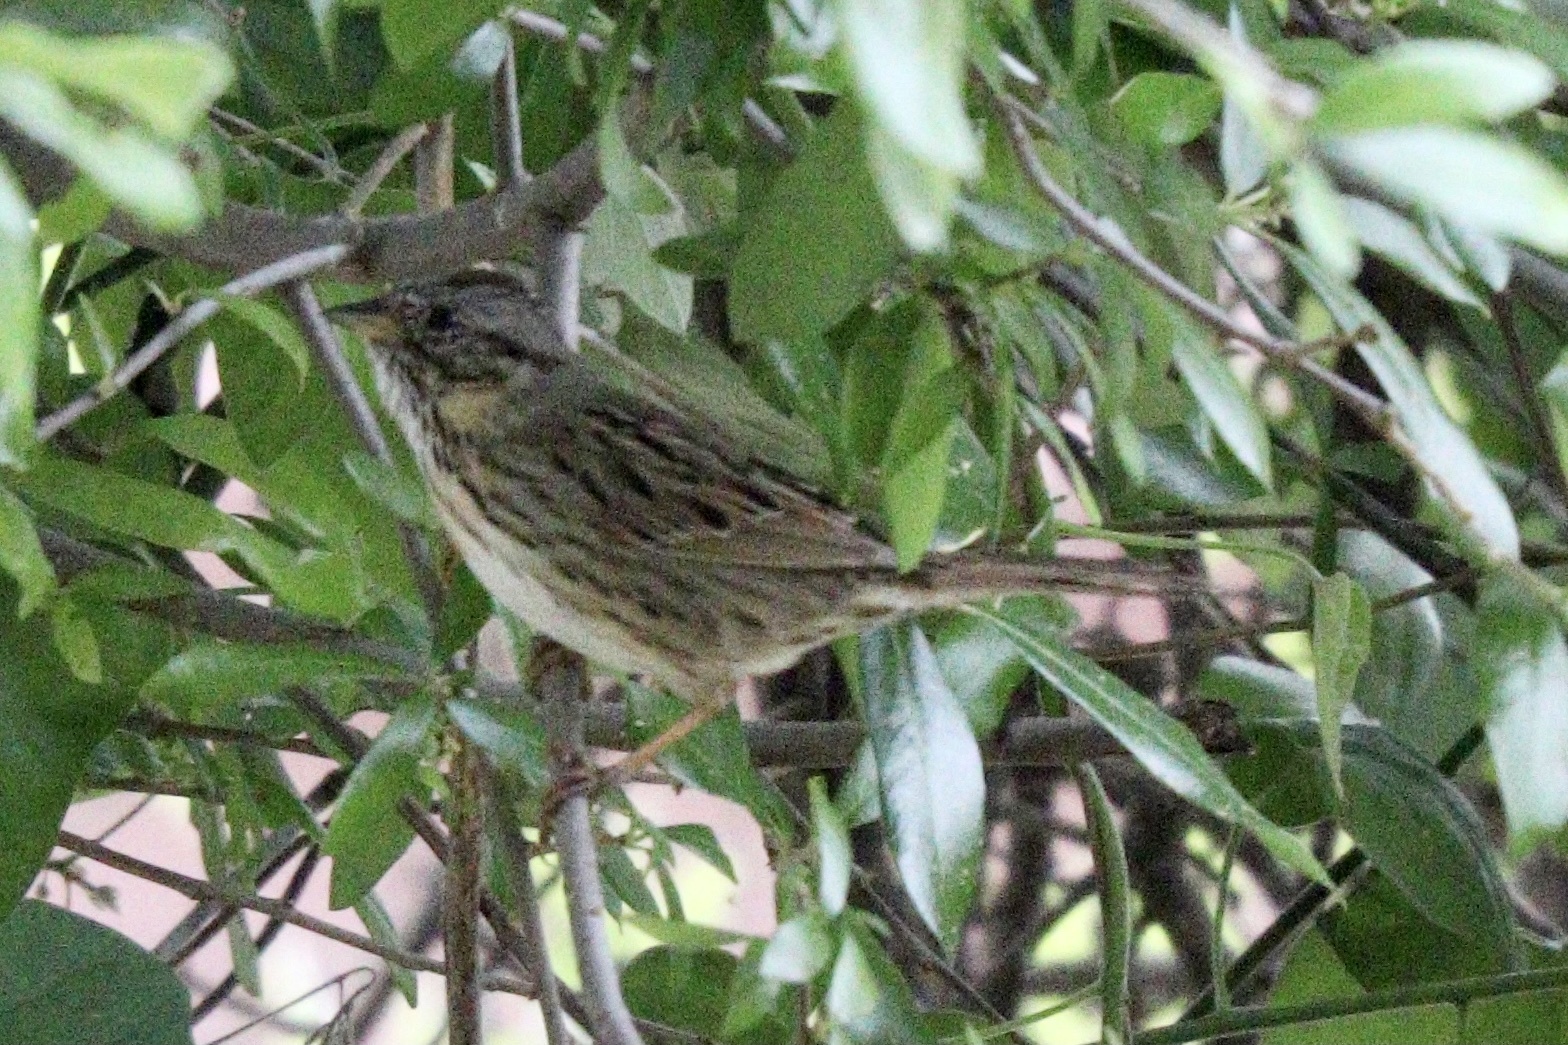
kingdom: Animalia
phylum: Chordata
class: Aves
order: Passeriformes
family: Passerellidae
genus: Melospiza
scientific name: Melospiza lincolnii
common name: Lincoln's sparrow
